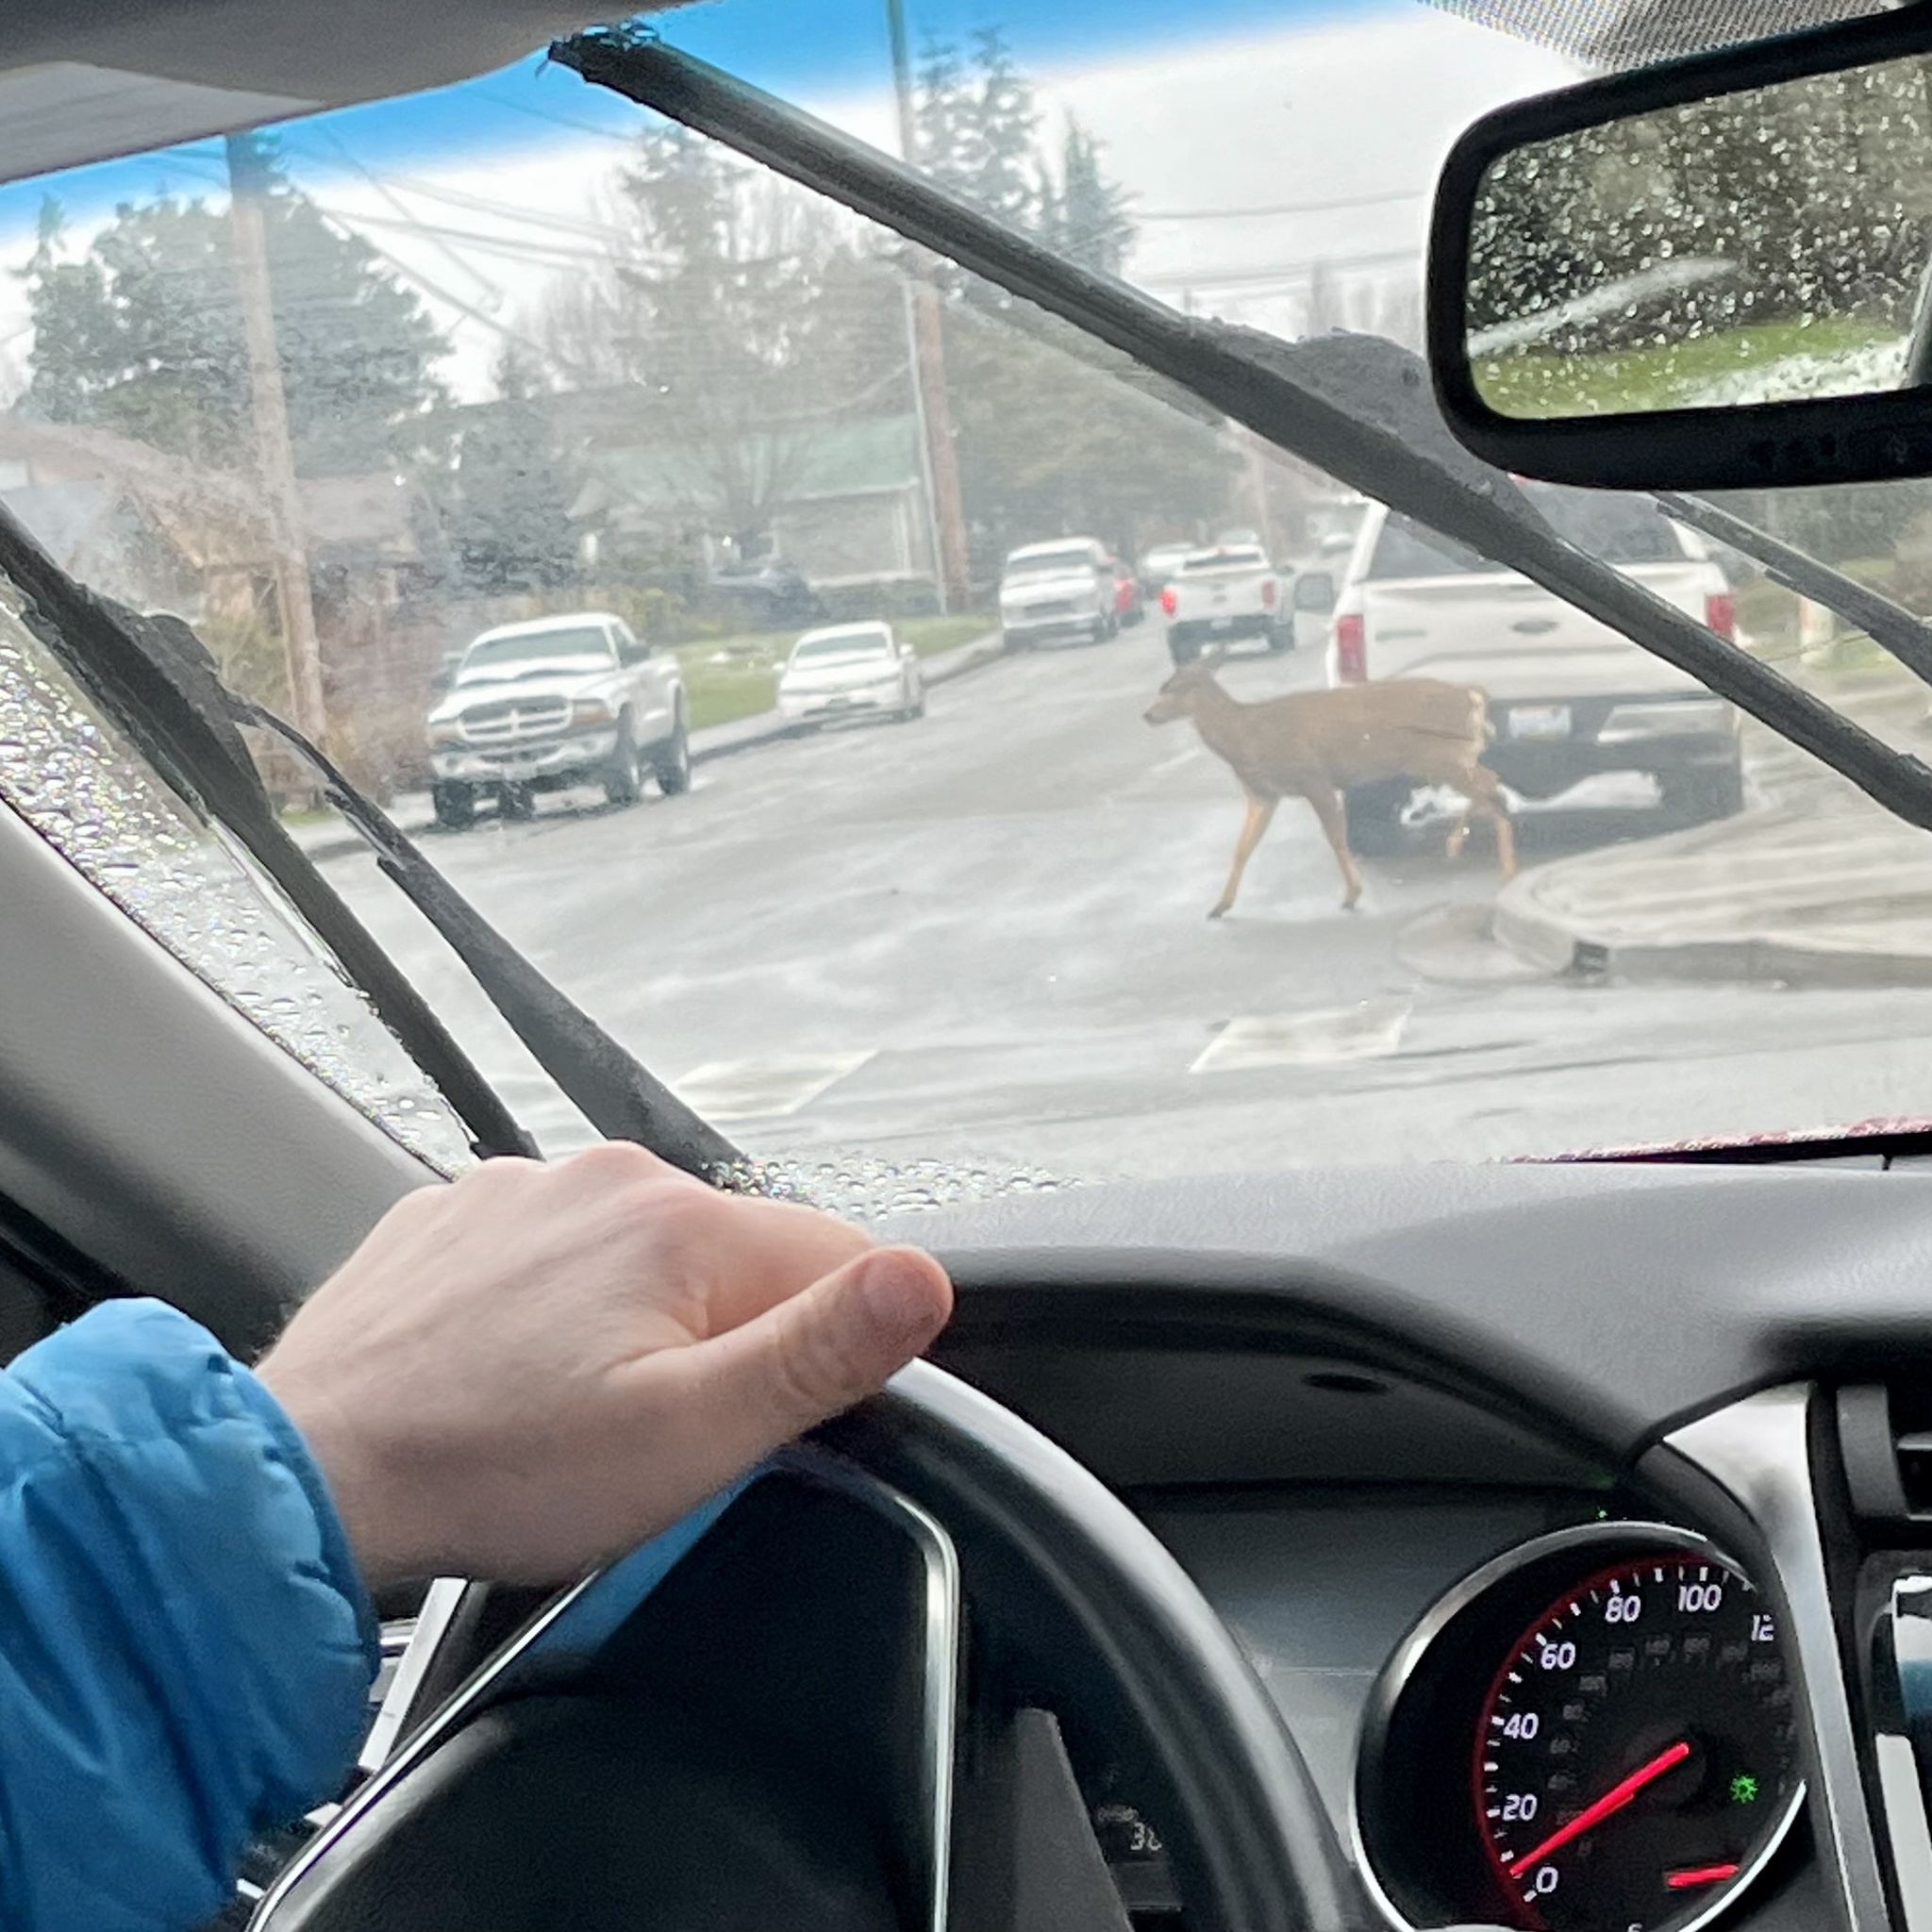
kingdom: Animalia
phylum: Chordata
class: Mammalia
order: Artiodactyla
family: Cervidae
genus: Odocoileus
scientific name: Odocoileus hemionus
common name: Mule deer
